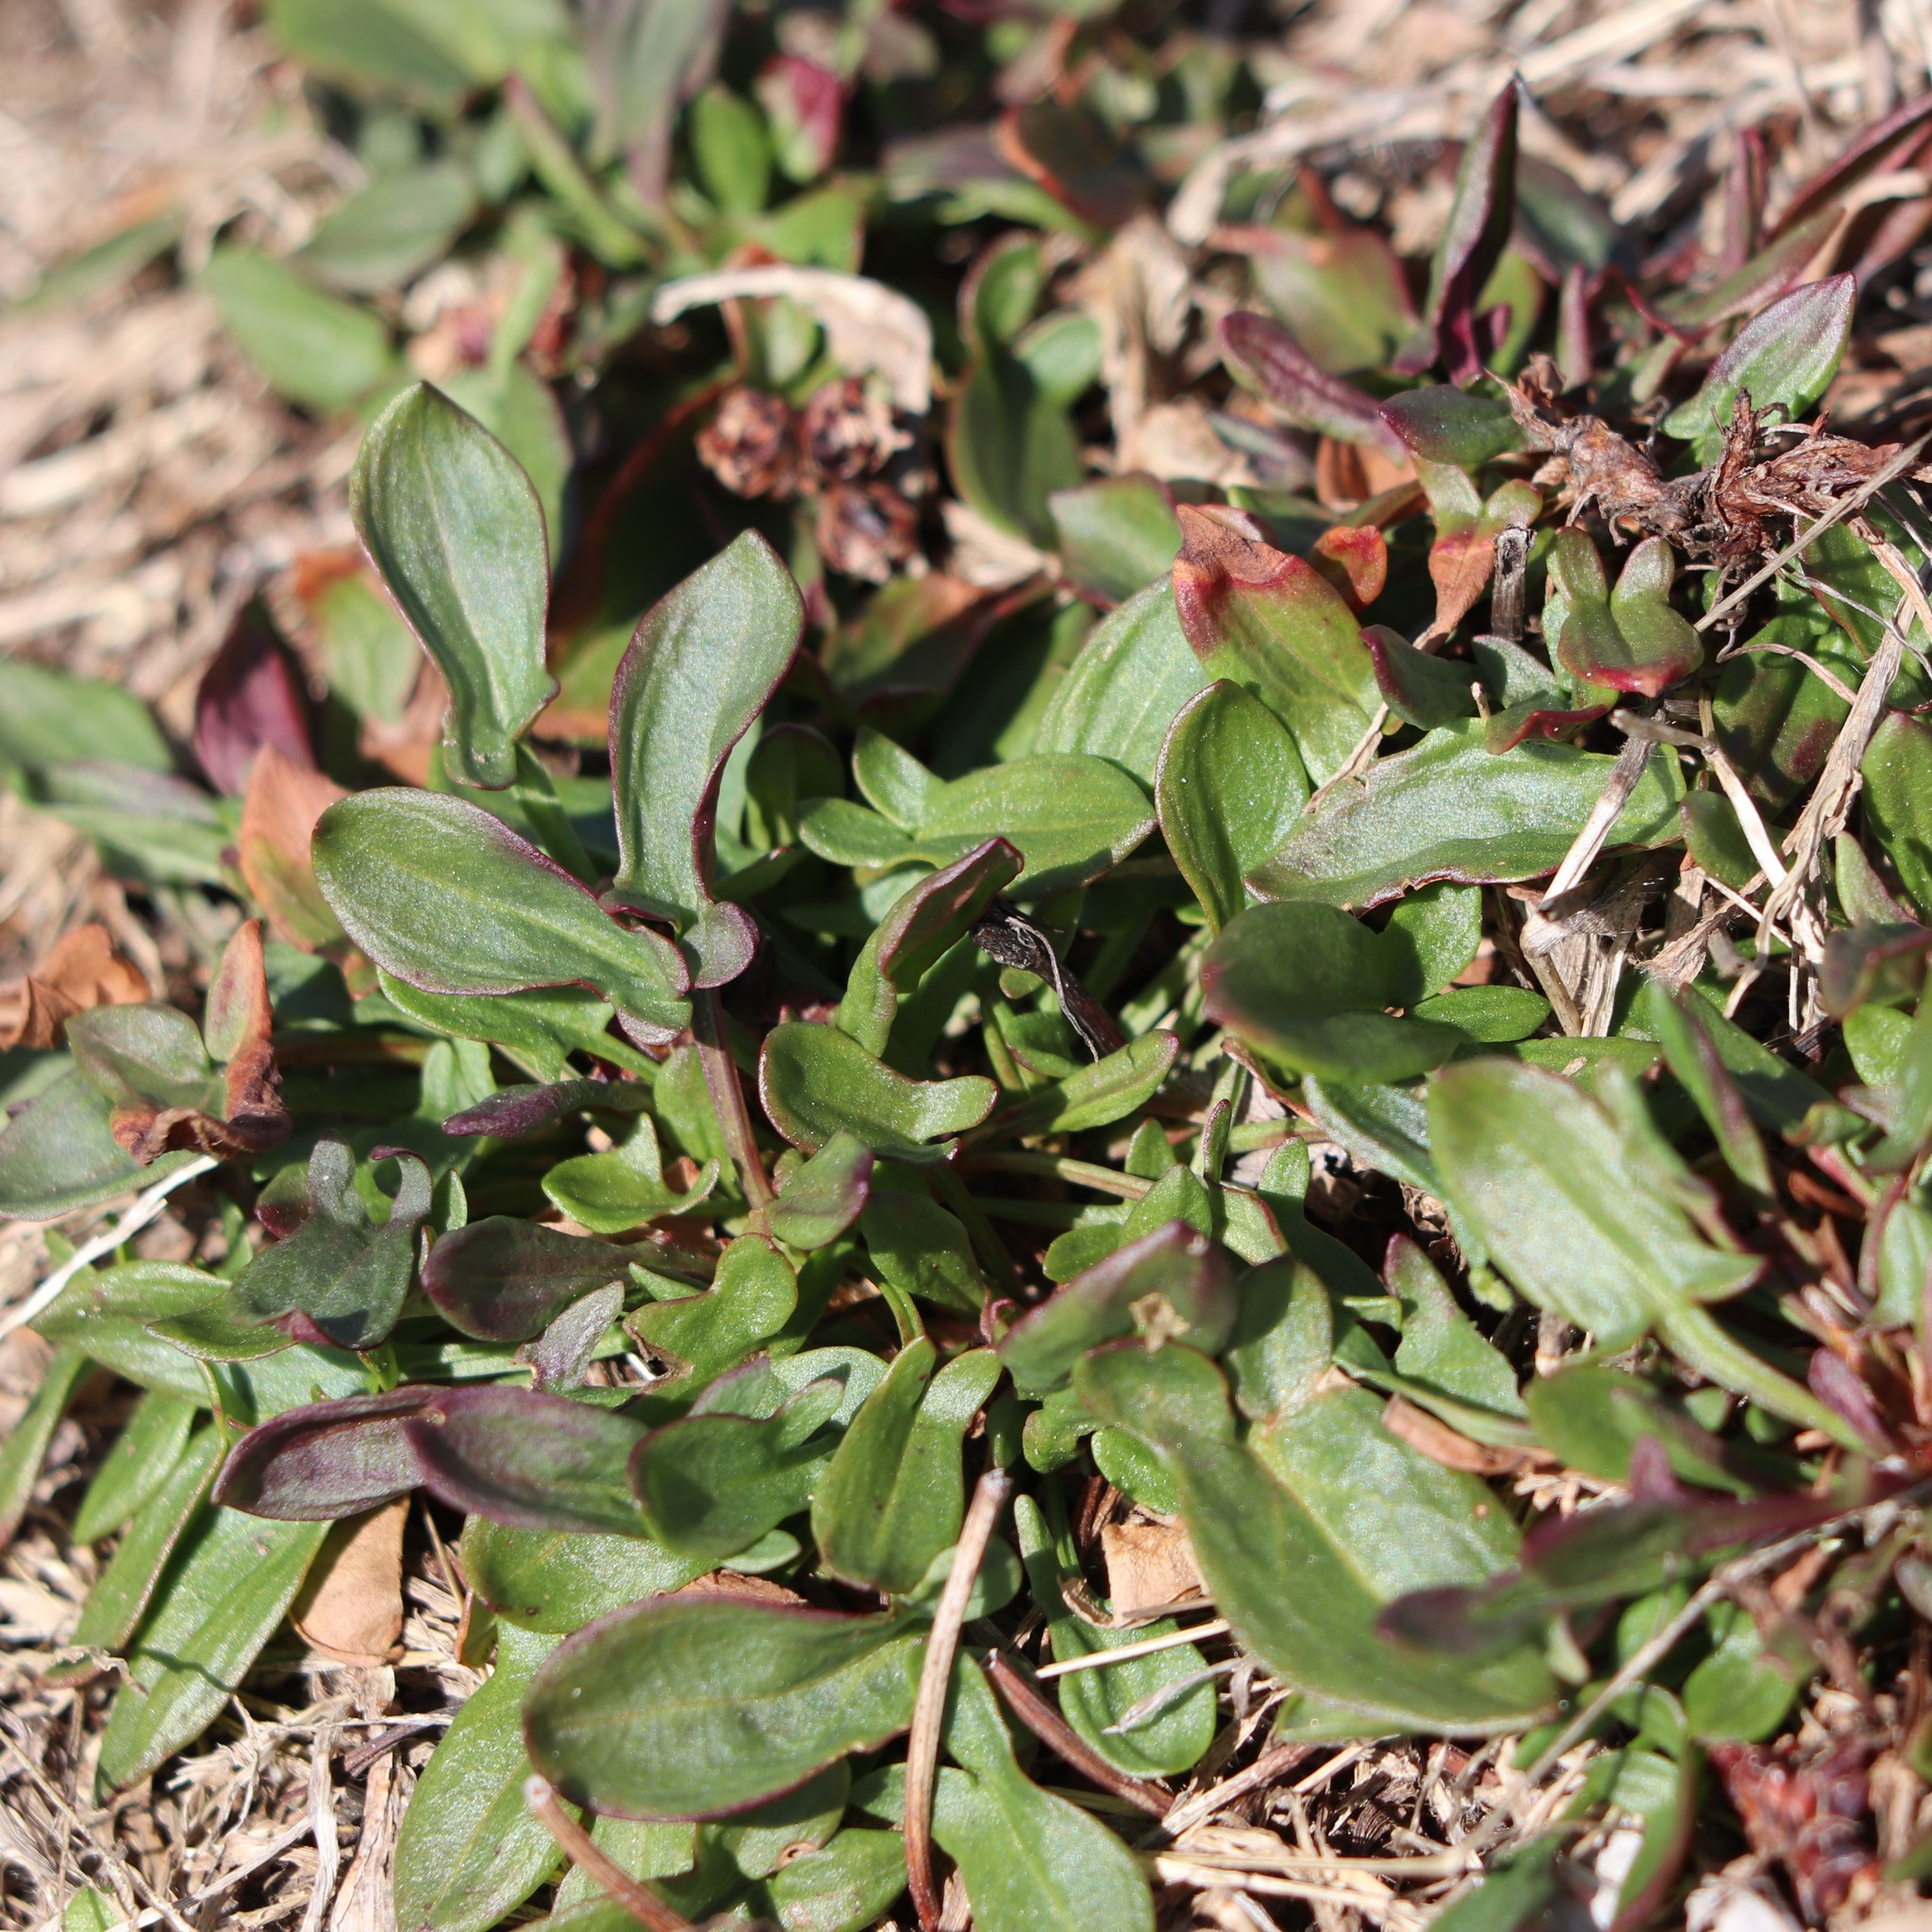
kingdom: Plantae
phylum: Tracheophyta
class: Magnoliopsida
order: Caryophyllales
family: Polygonaceae
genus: Rumex
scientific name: Rumex acetosella
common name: Common sheep sorrel
